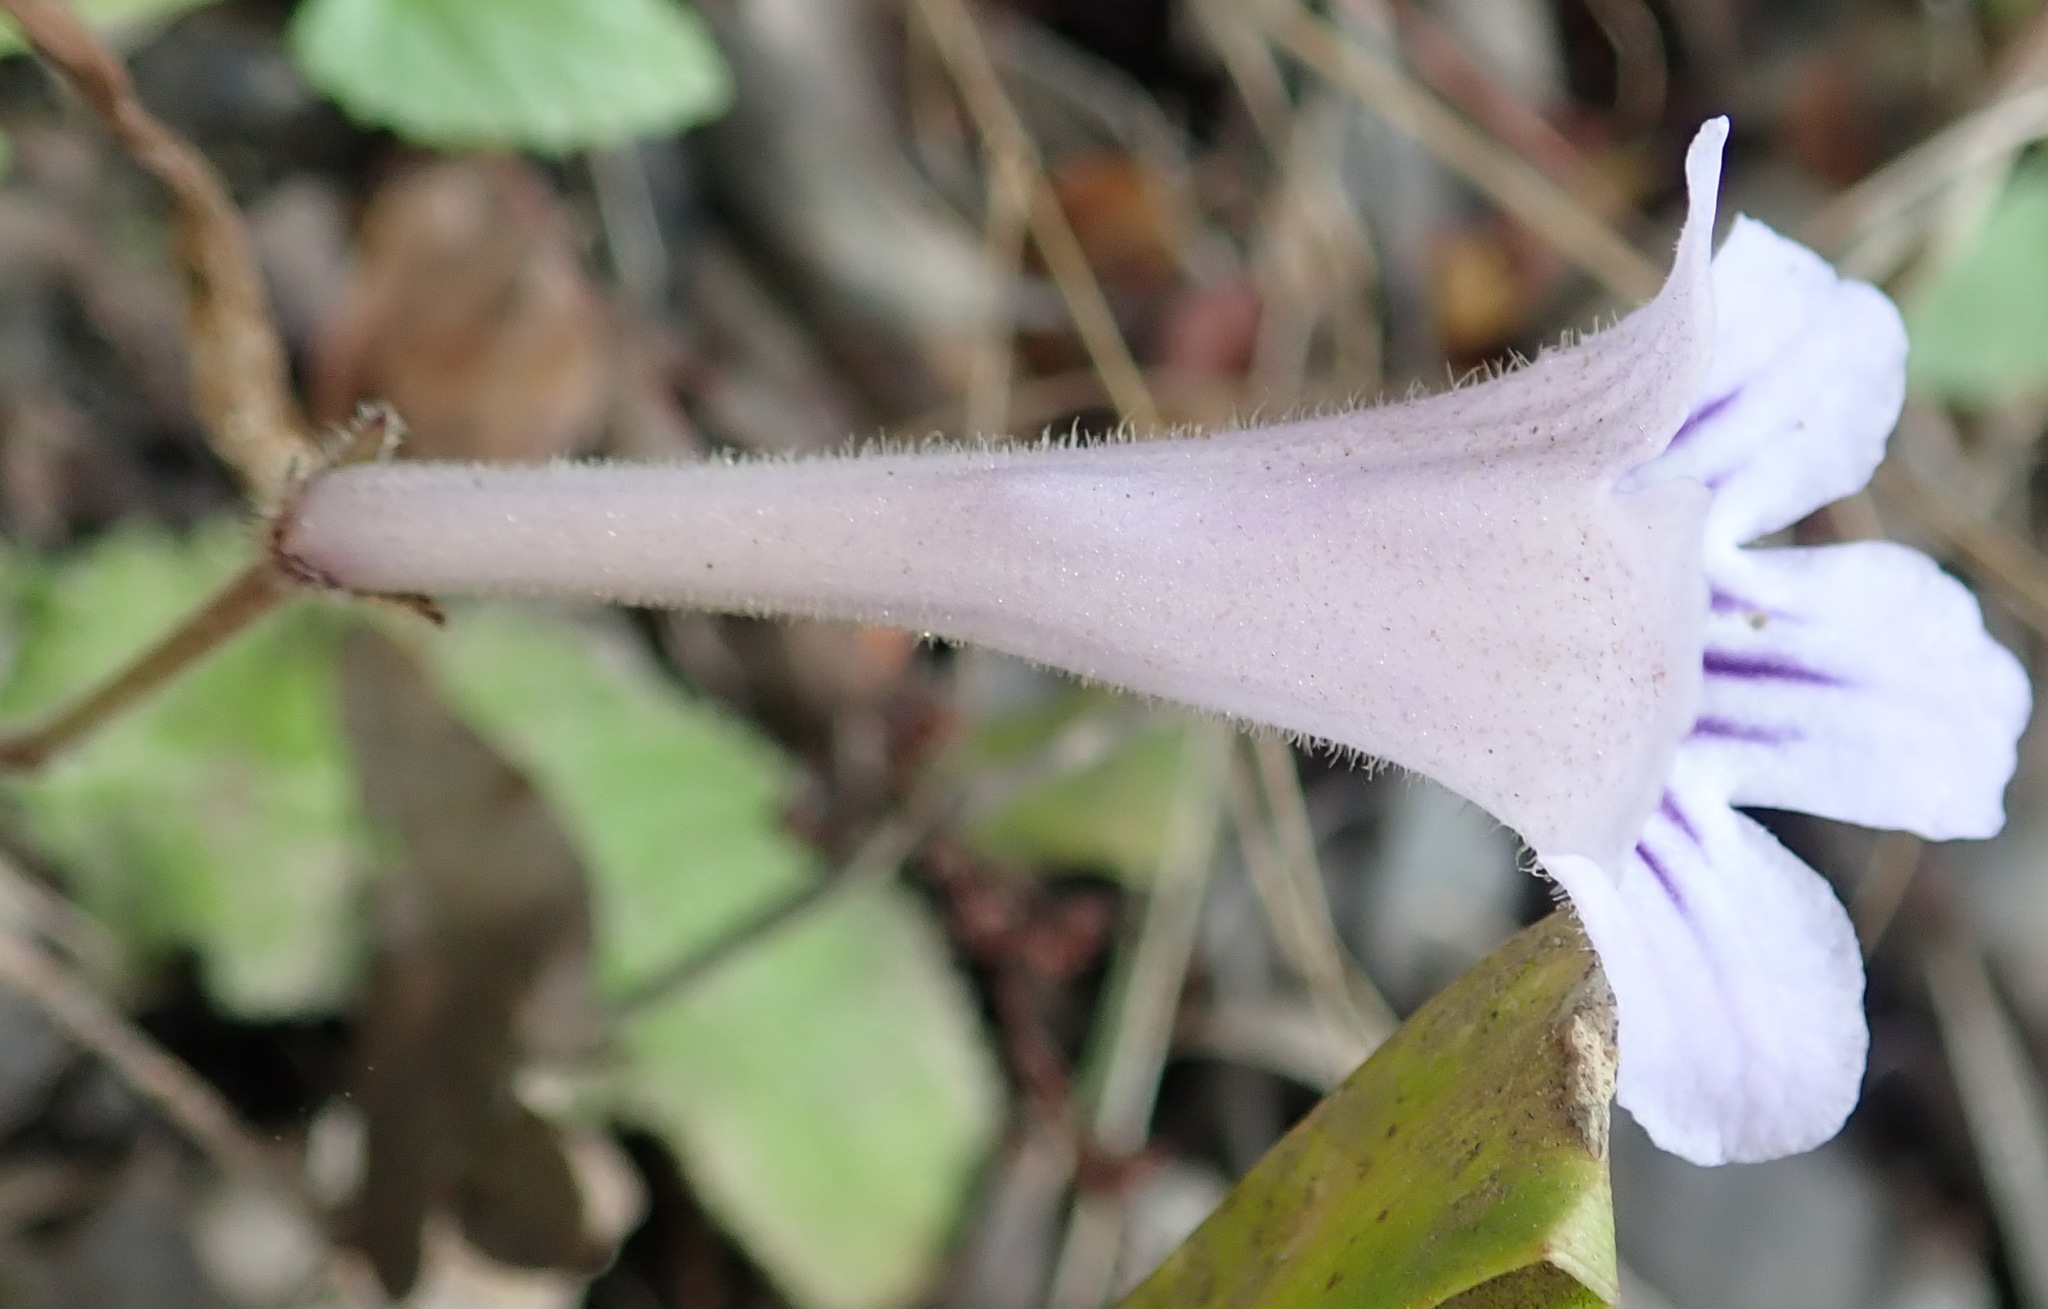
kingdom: Plantae
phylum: Tracheophyta
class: Magnoliopsida
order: Lamiales
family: Gesneriaceae
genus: Streptocarpus
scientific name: Streptocarpus rexii
